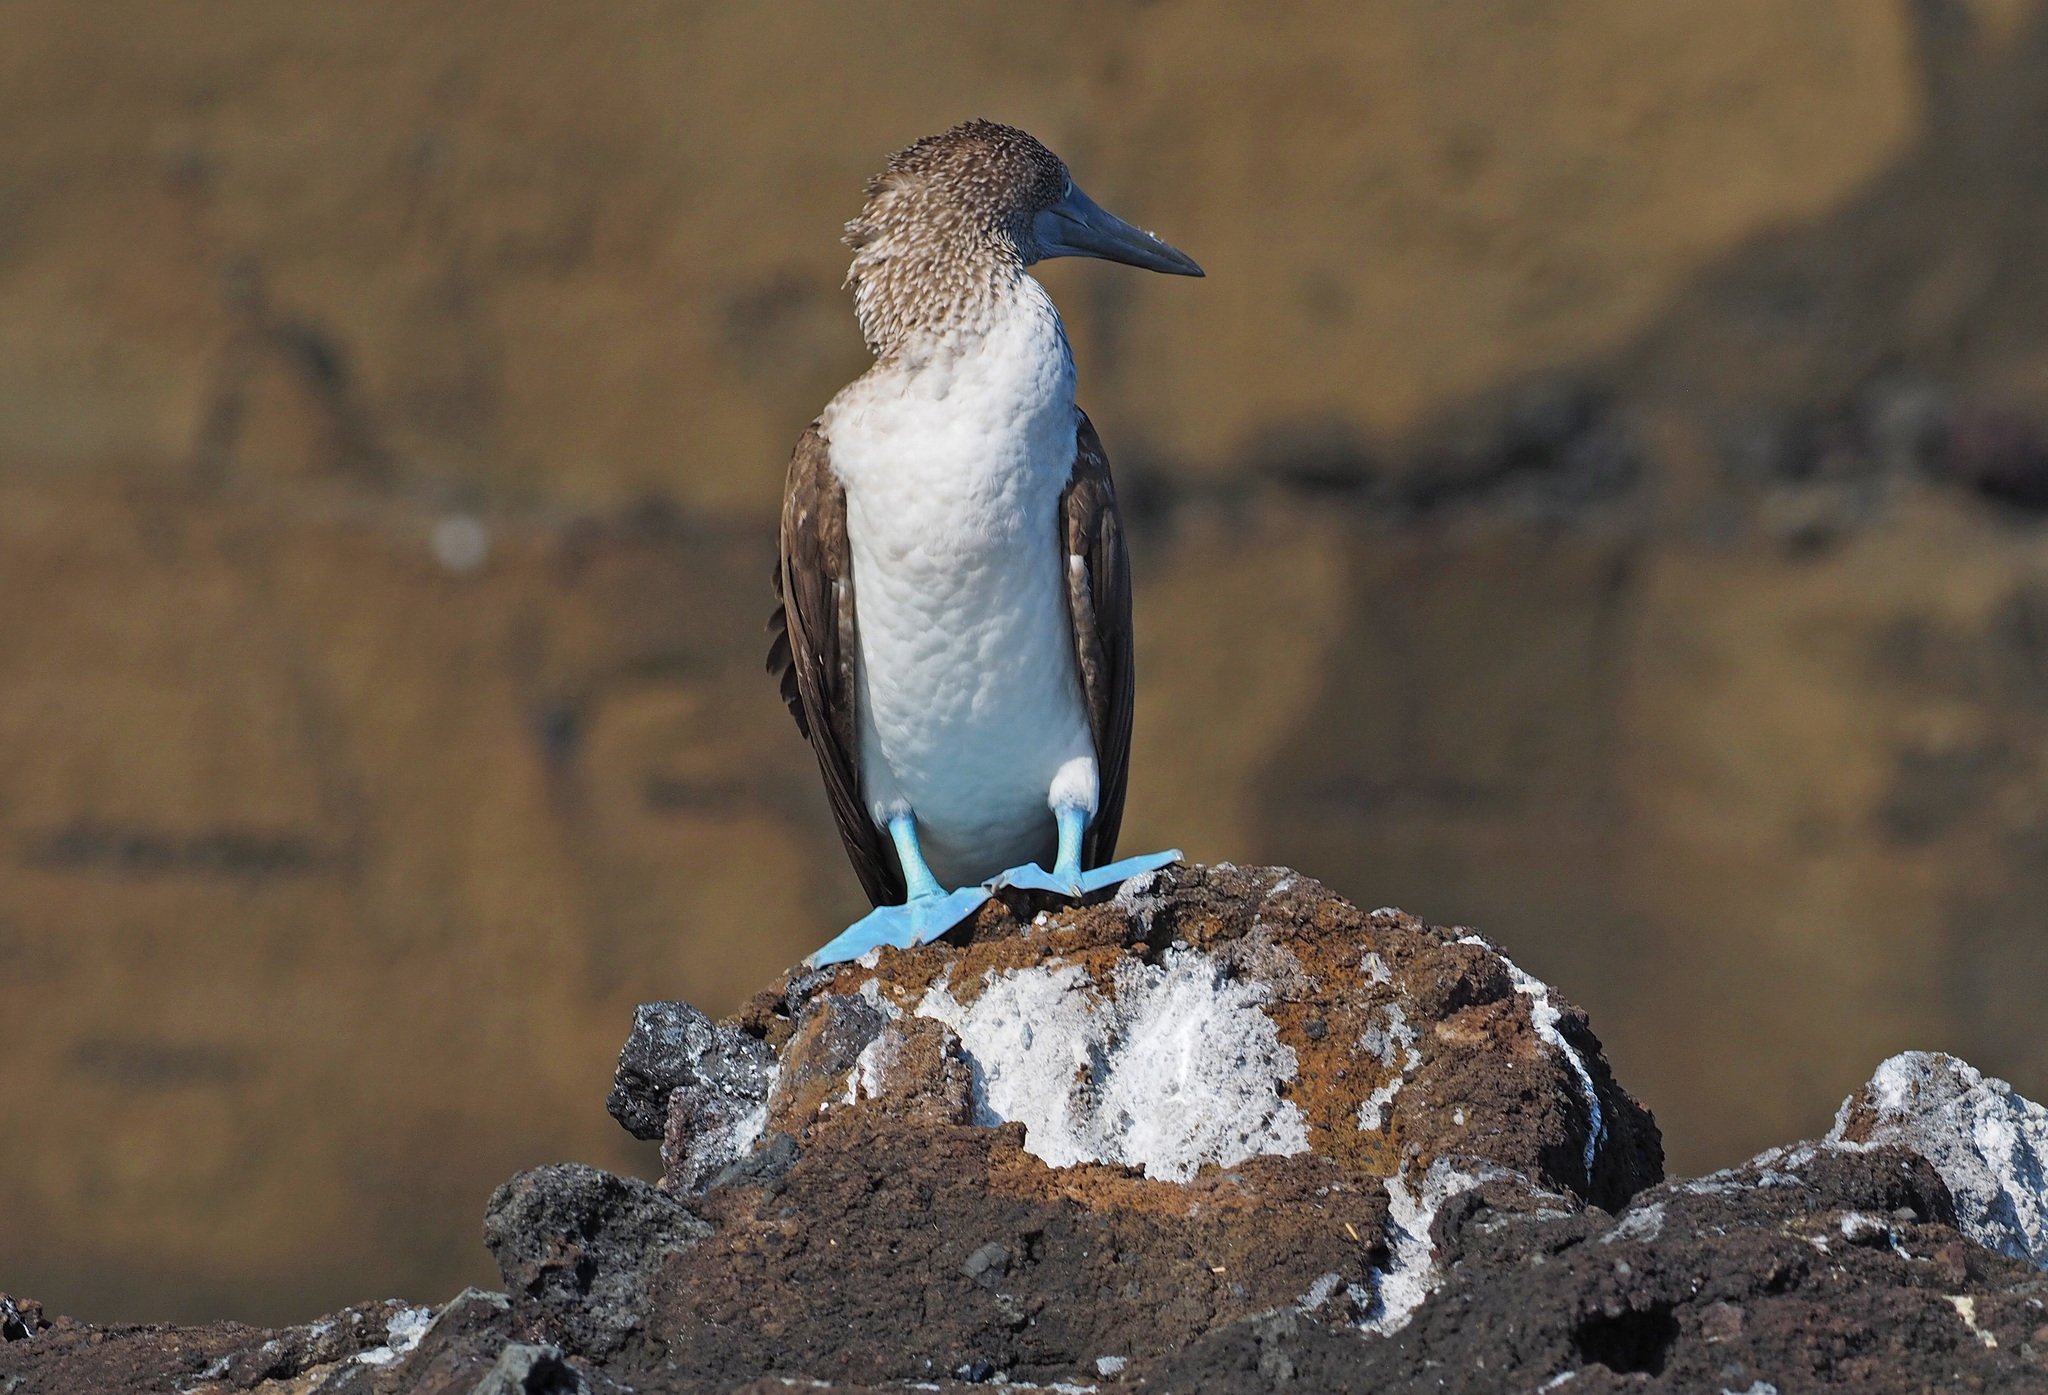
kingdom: Animalia
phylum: Chordata
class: Aves
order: Suliformes
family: Sulidae
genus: Sula
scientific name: Sula nebouxii
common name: Blue-footed booby
